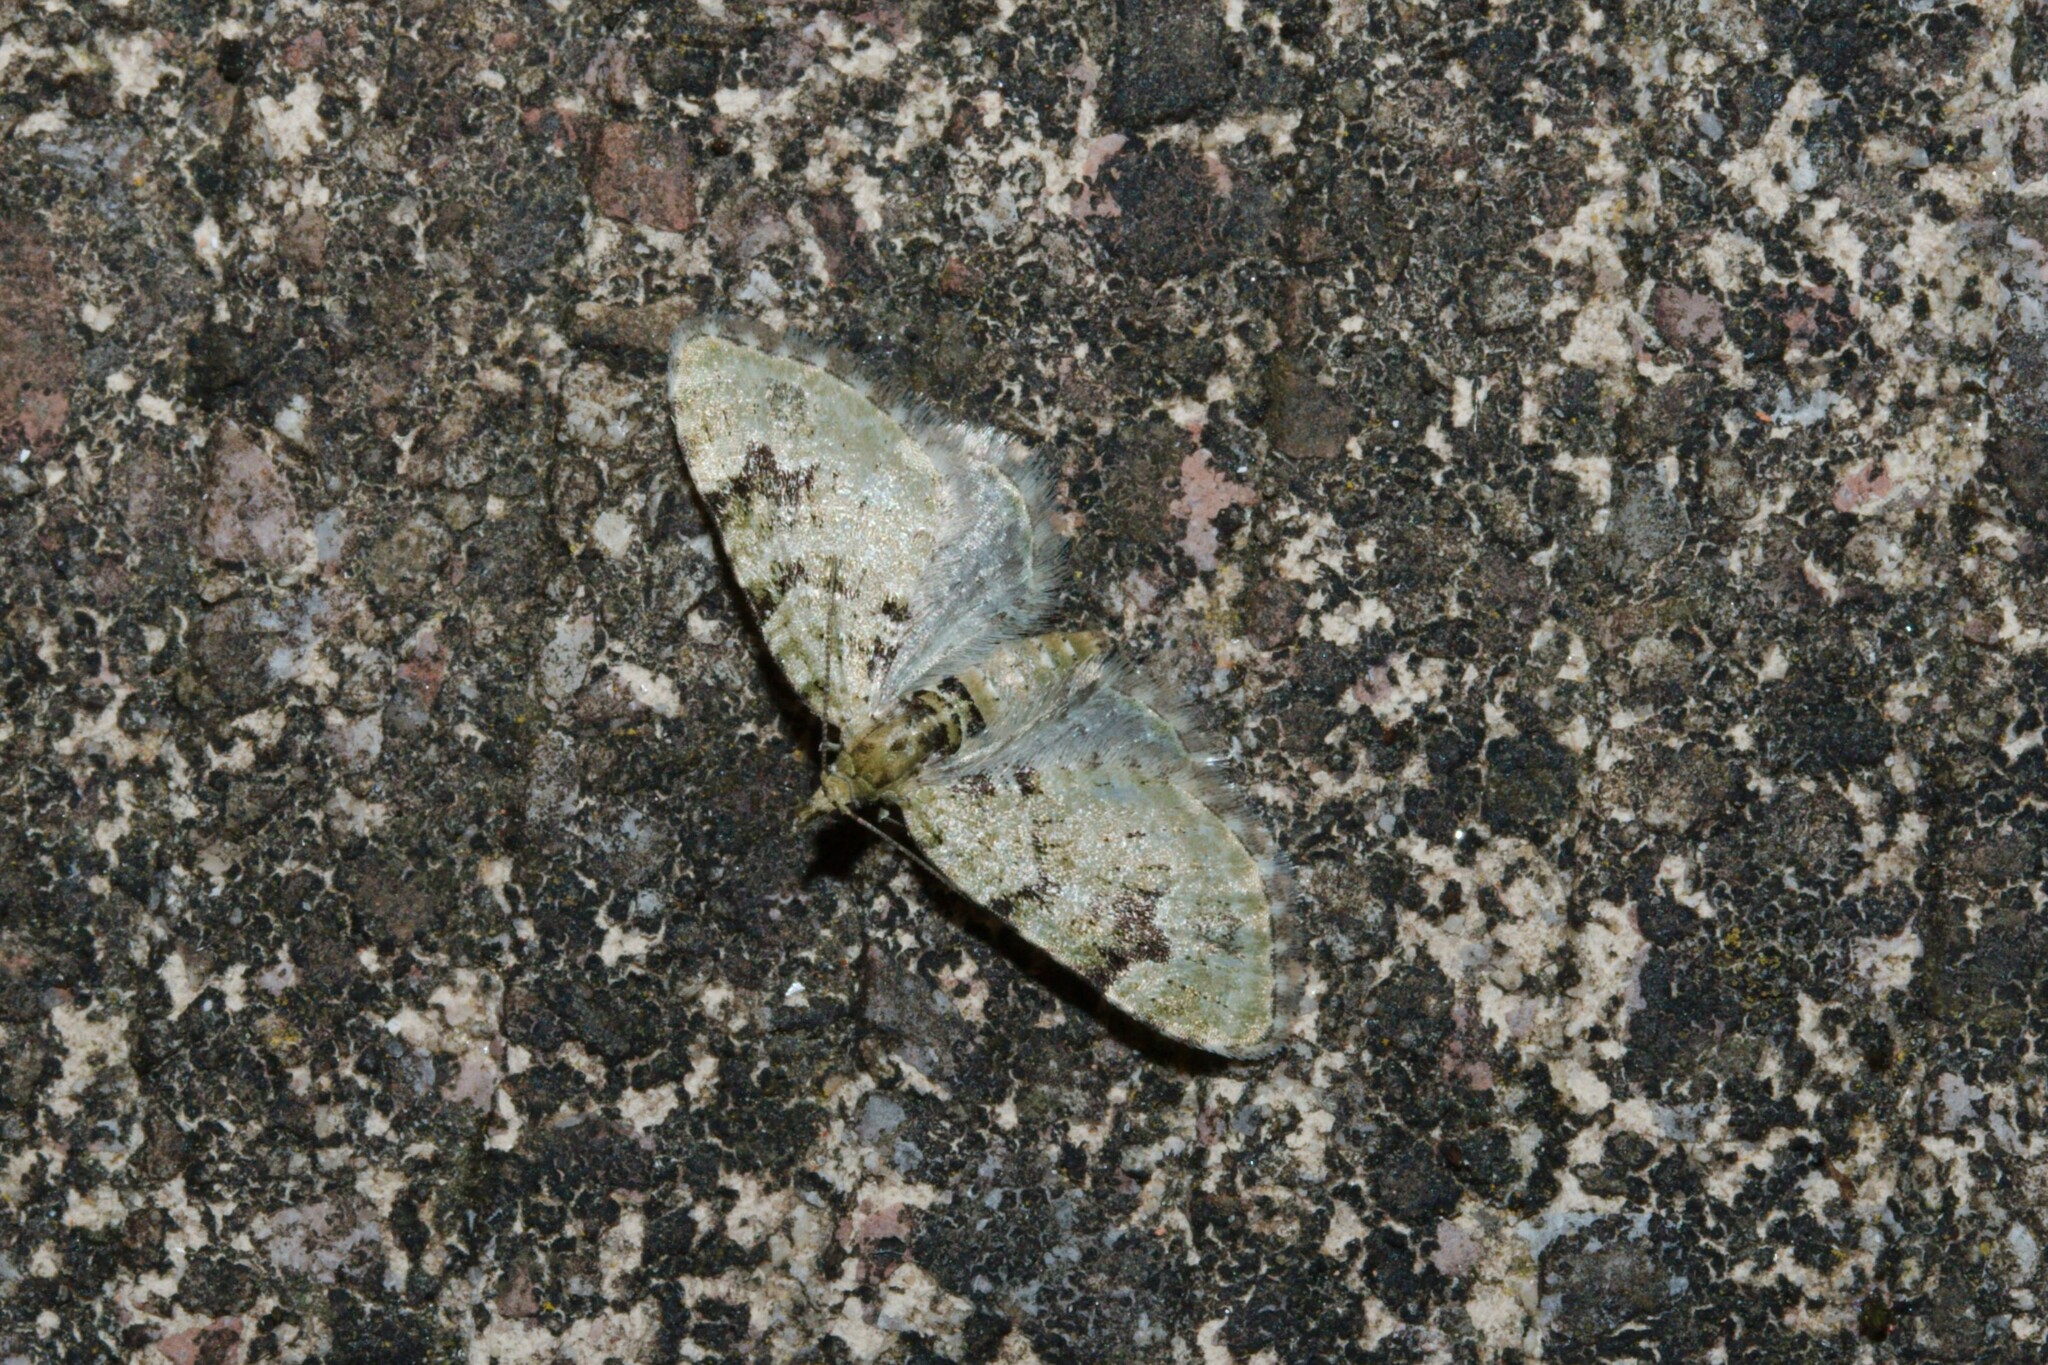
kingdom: Animalia
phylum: Arthropoda
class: Insecta
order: Lepidoptera
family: Geometridae
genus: Chloroclystis
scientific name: Chloroclystis v-ata
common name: V-pug
